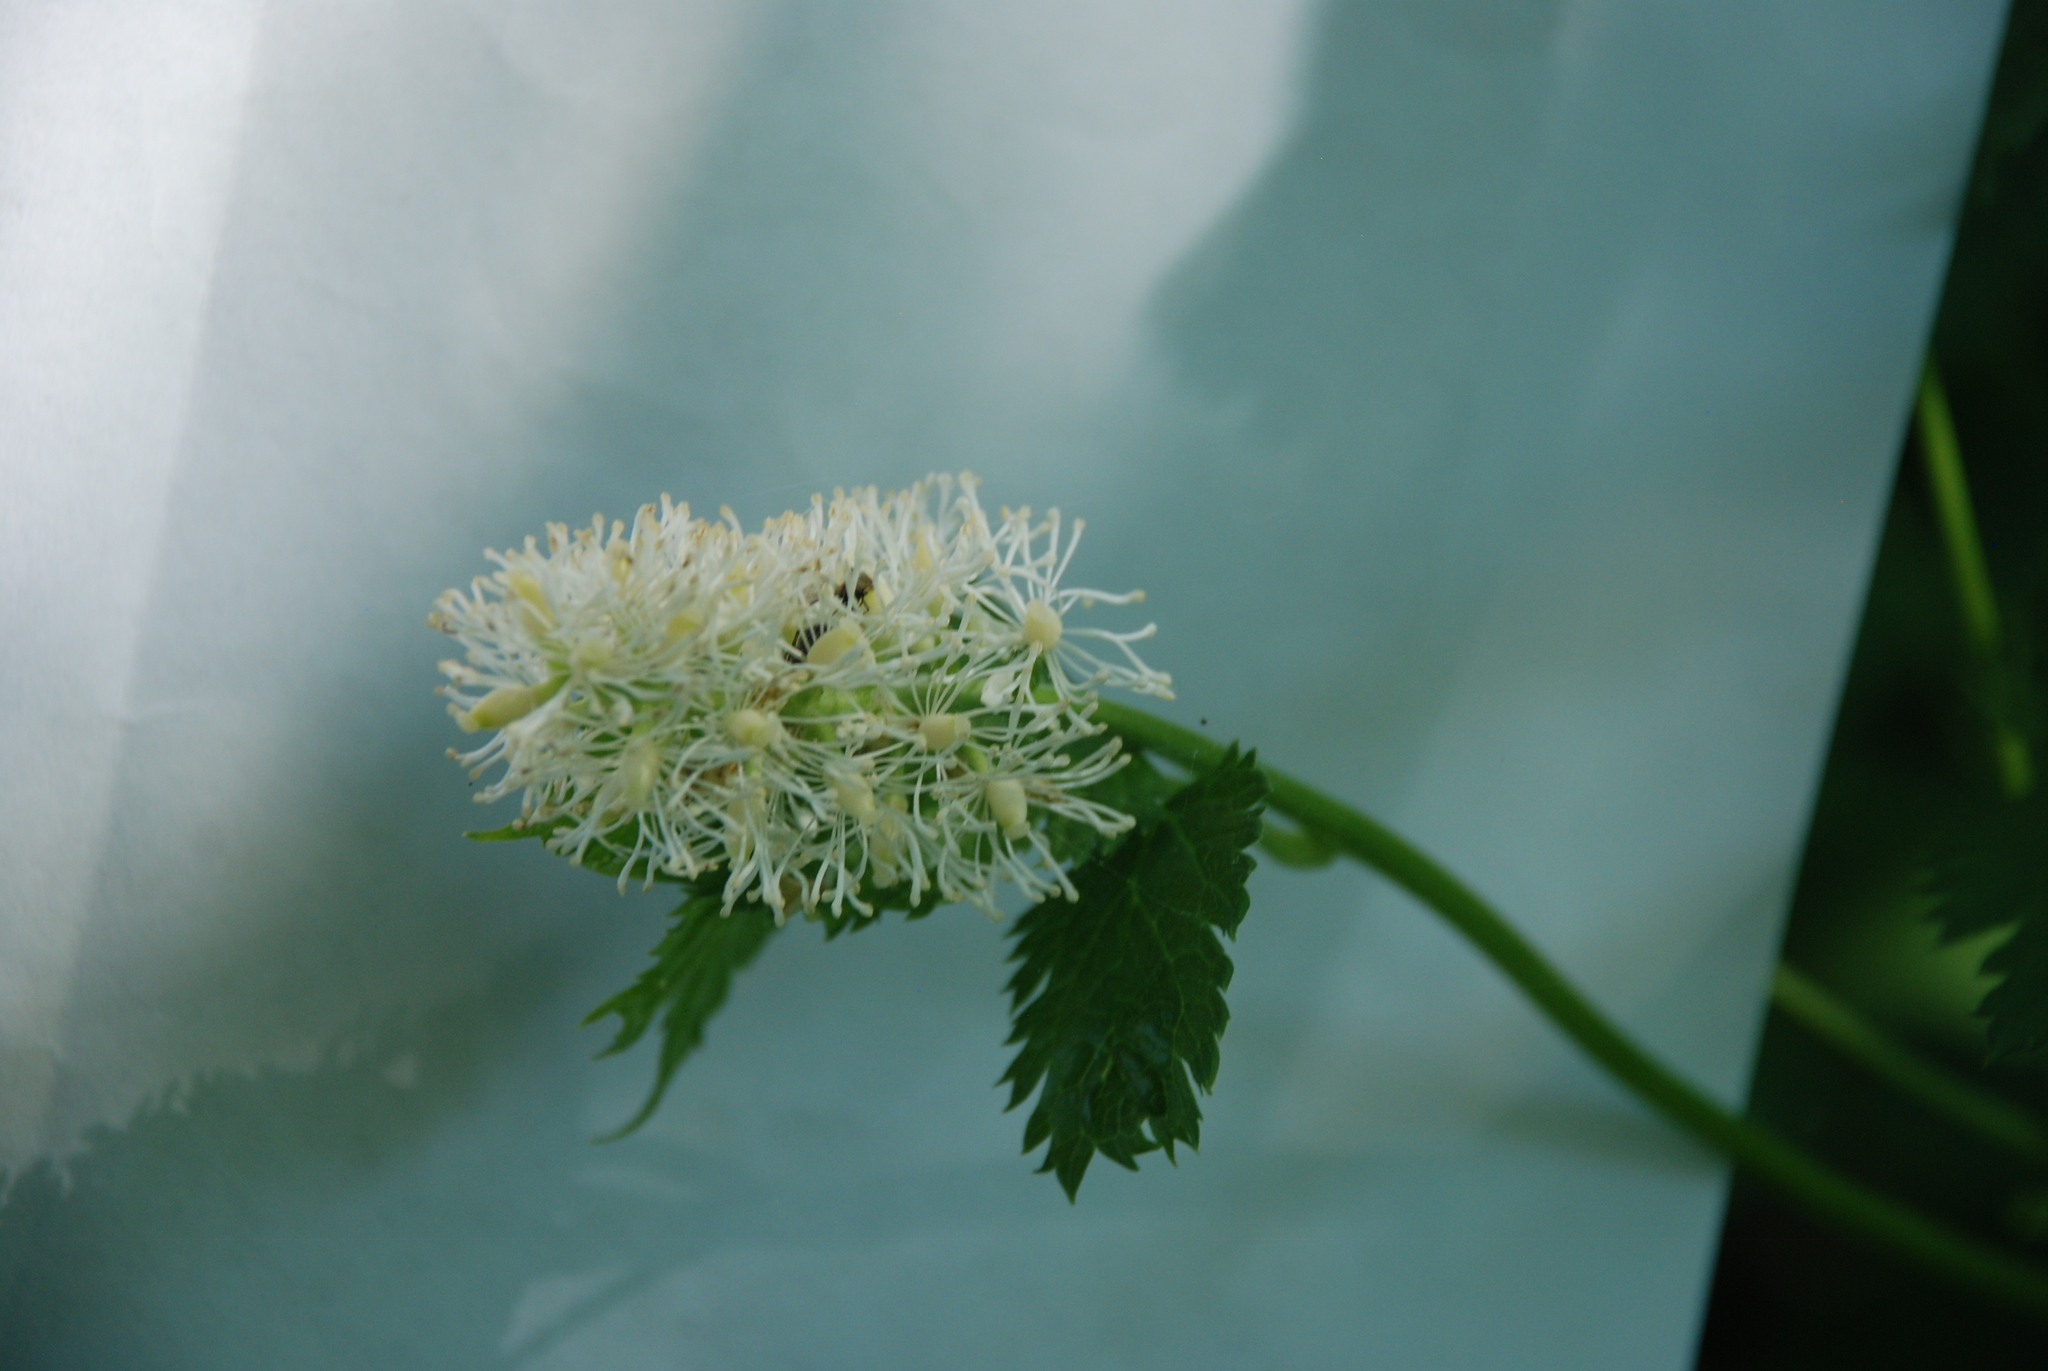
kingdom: Plantae
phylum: Tracheophyta
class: Magnoliopsida
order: Ranunculales
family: Ranunculaceae
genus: Actaea
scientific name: Actaea spicata
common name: Baneberry
